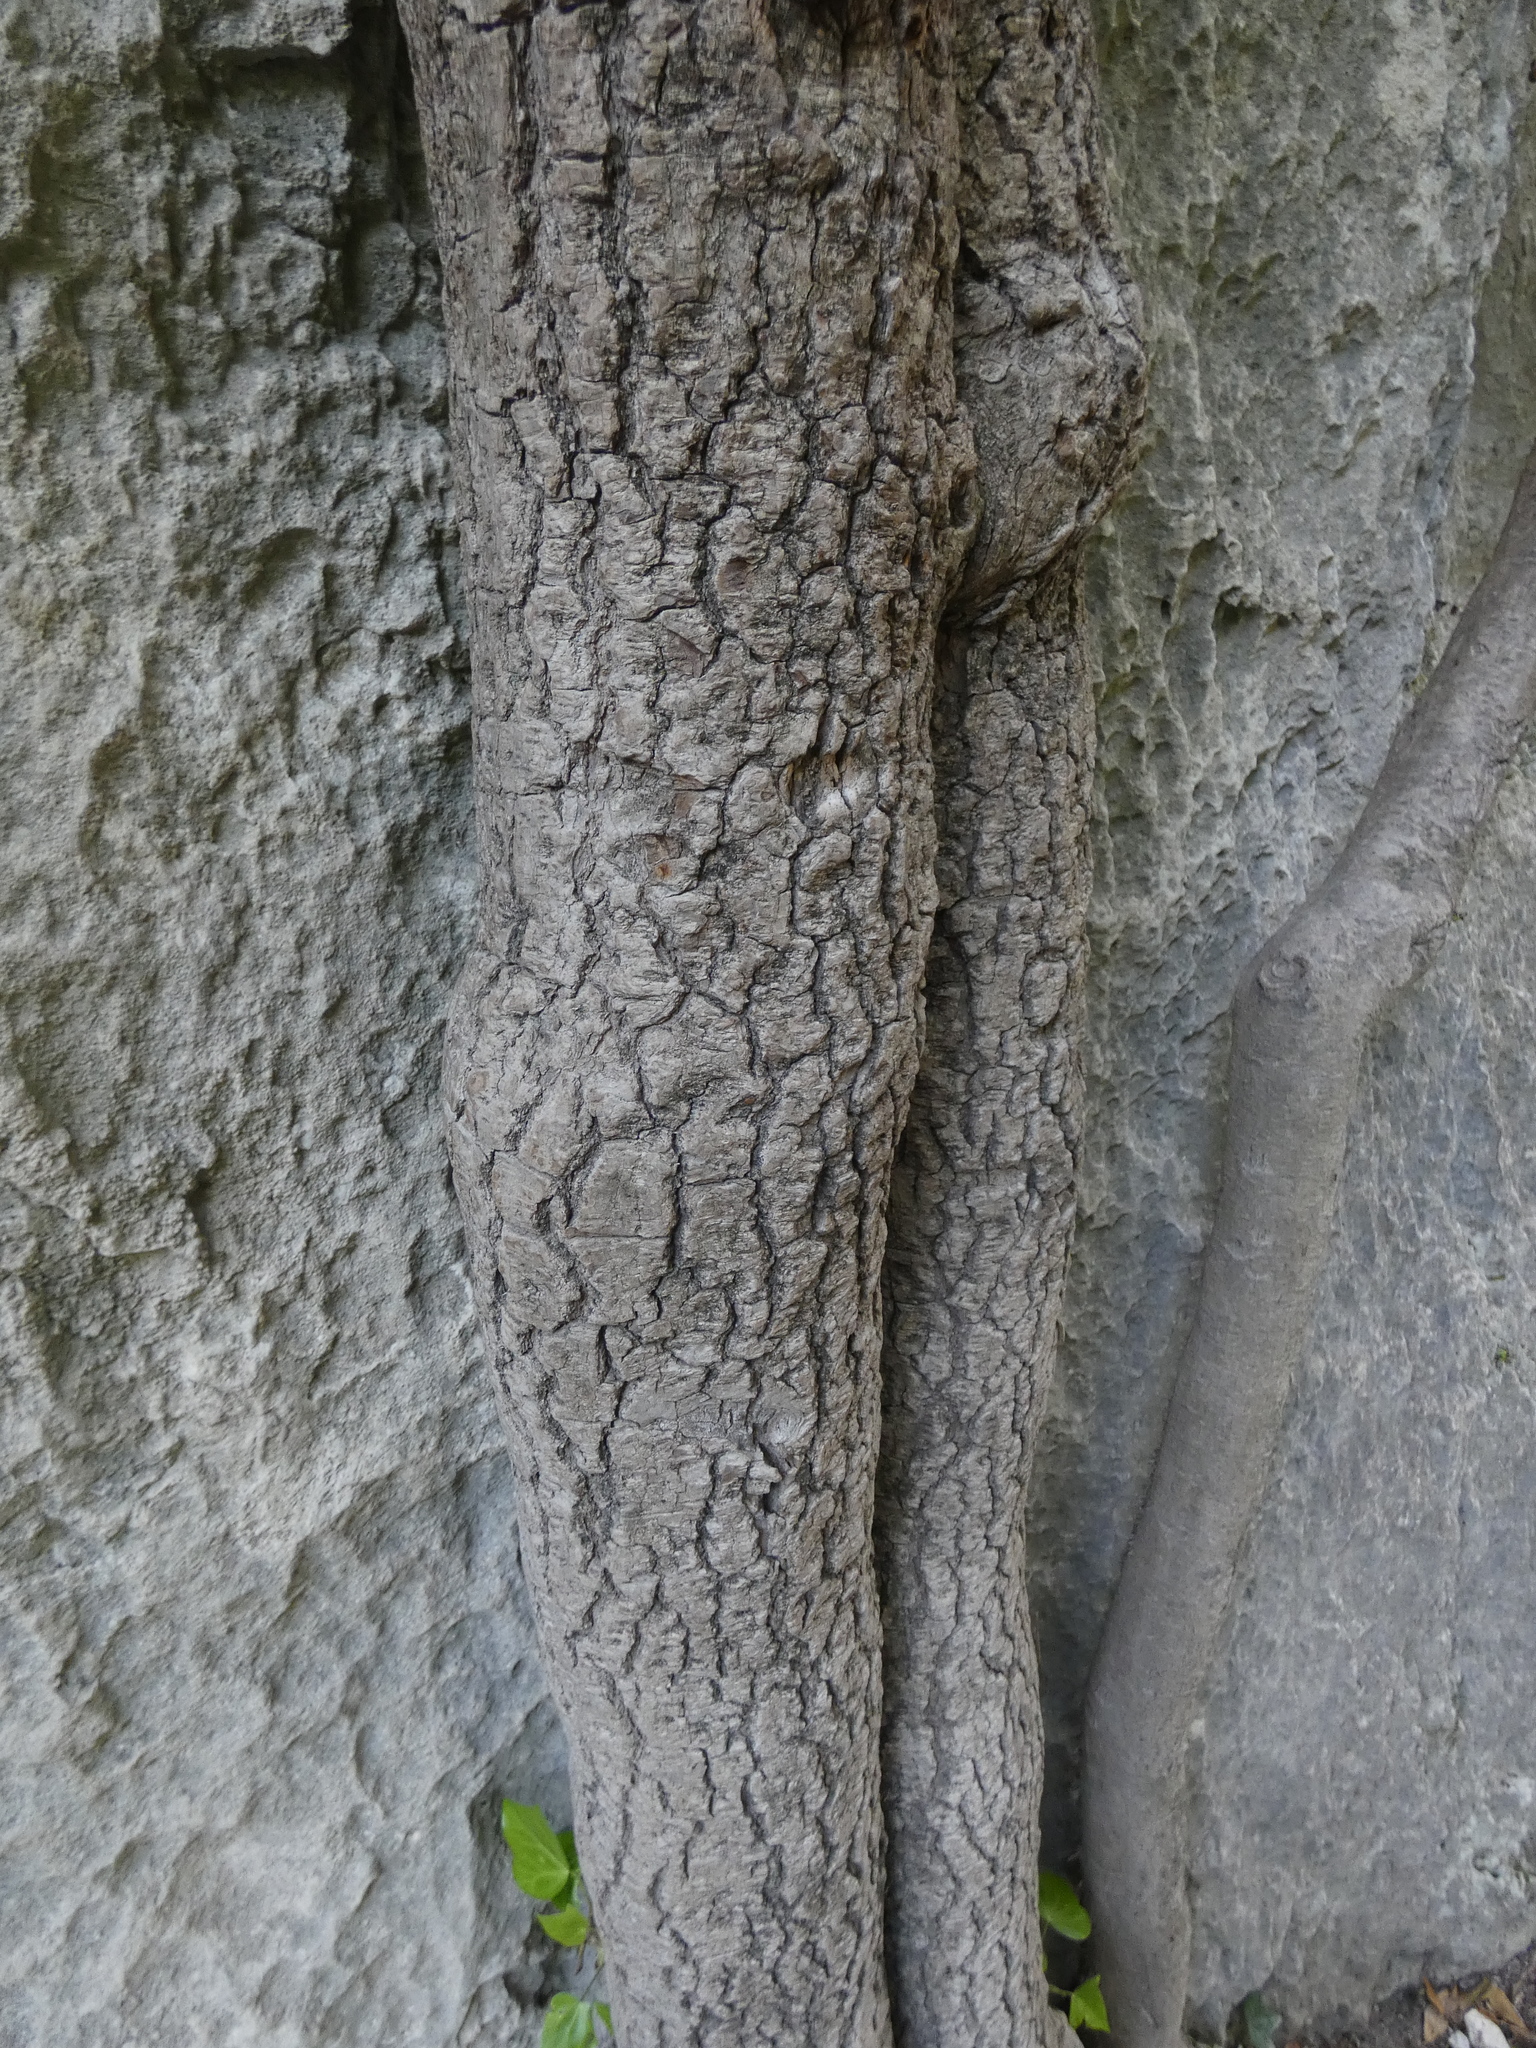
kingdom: Plantae
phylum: Tracheophyta
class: Magnoliopsida
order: Apiales
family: Araliaceae
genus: Hedera
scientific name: Hedera helix
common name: Ivy
